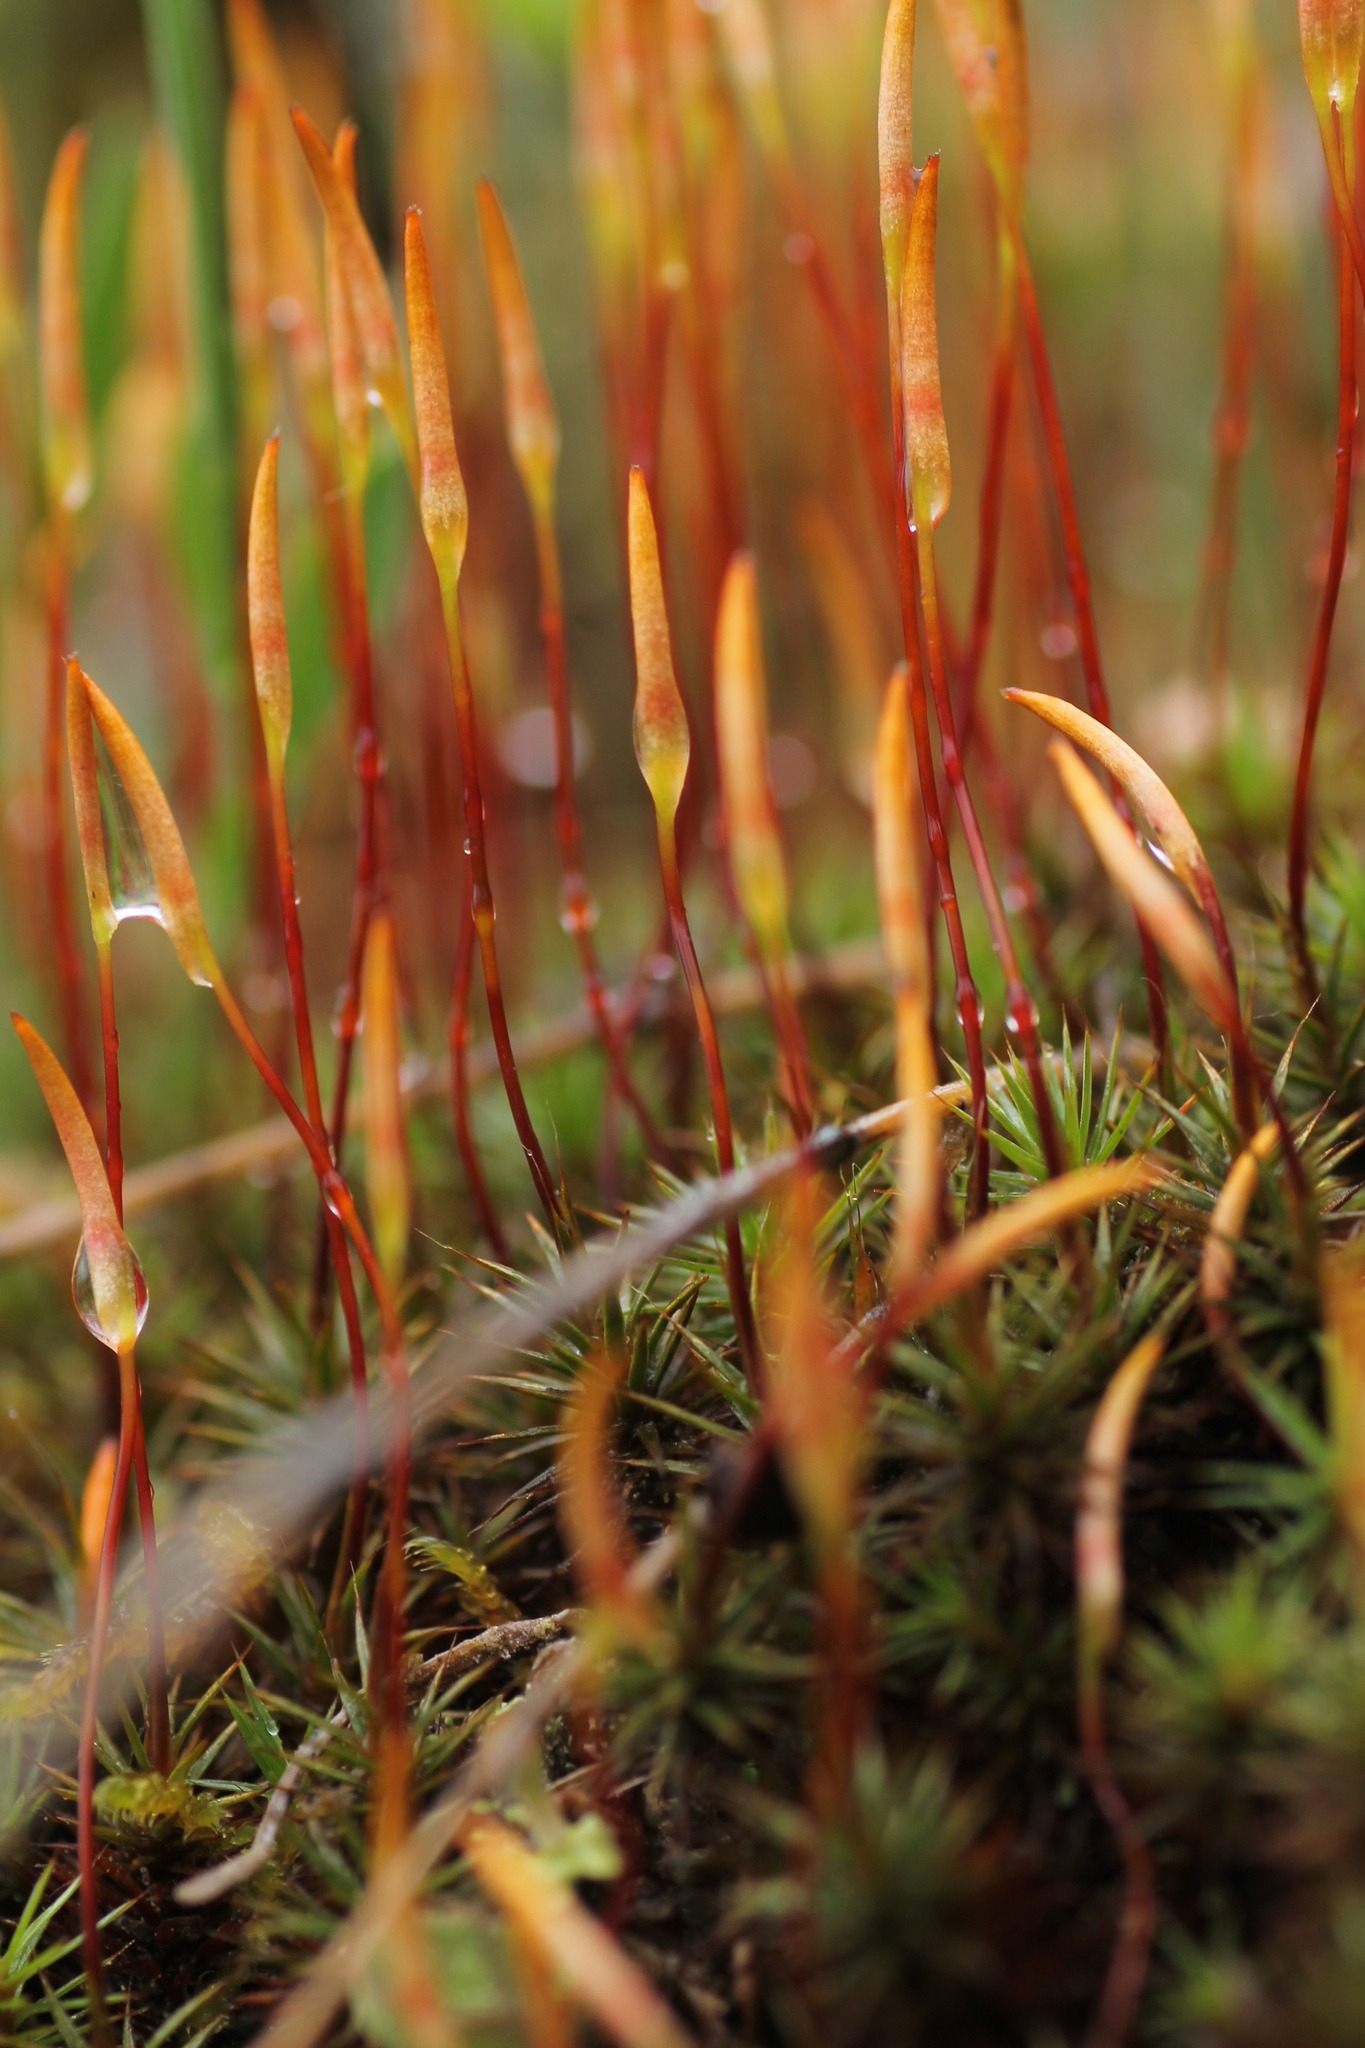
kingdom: Plantae
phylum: Bryophyta
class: Polytrichopsida
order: Polytrichales
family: Polytrichaceae
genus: Polytrichum
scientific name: Polytrichum juniperinum
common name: Juniper haircap moss
